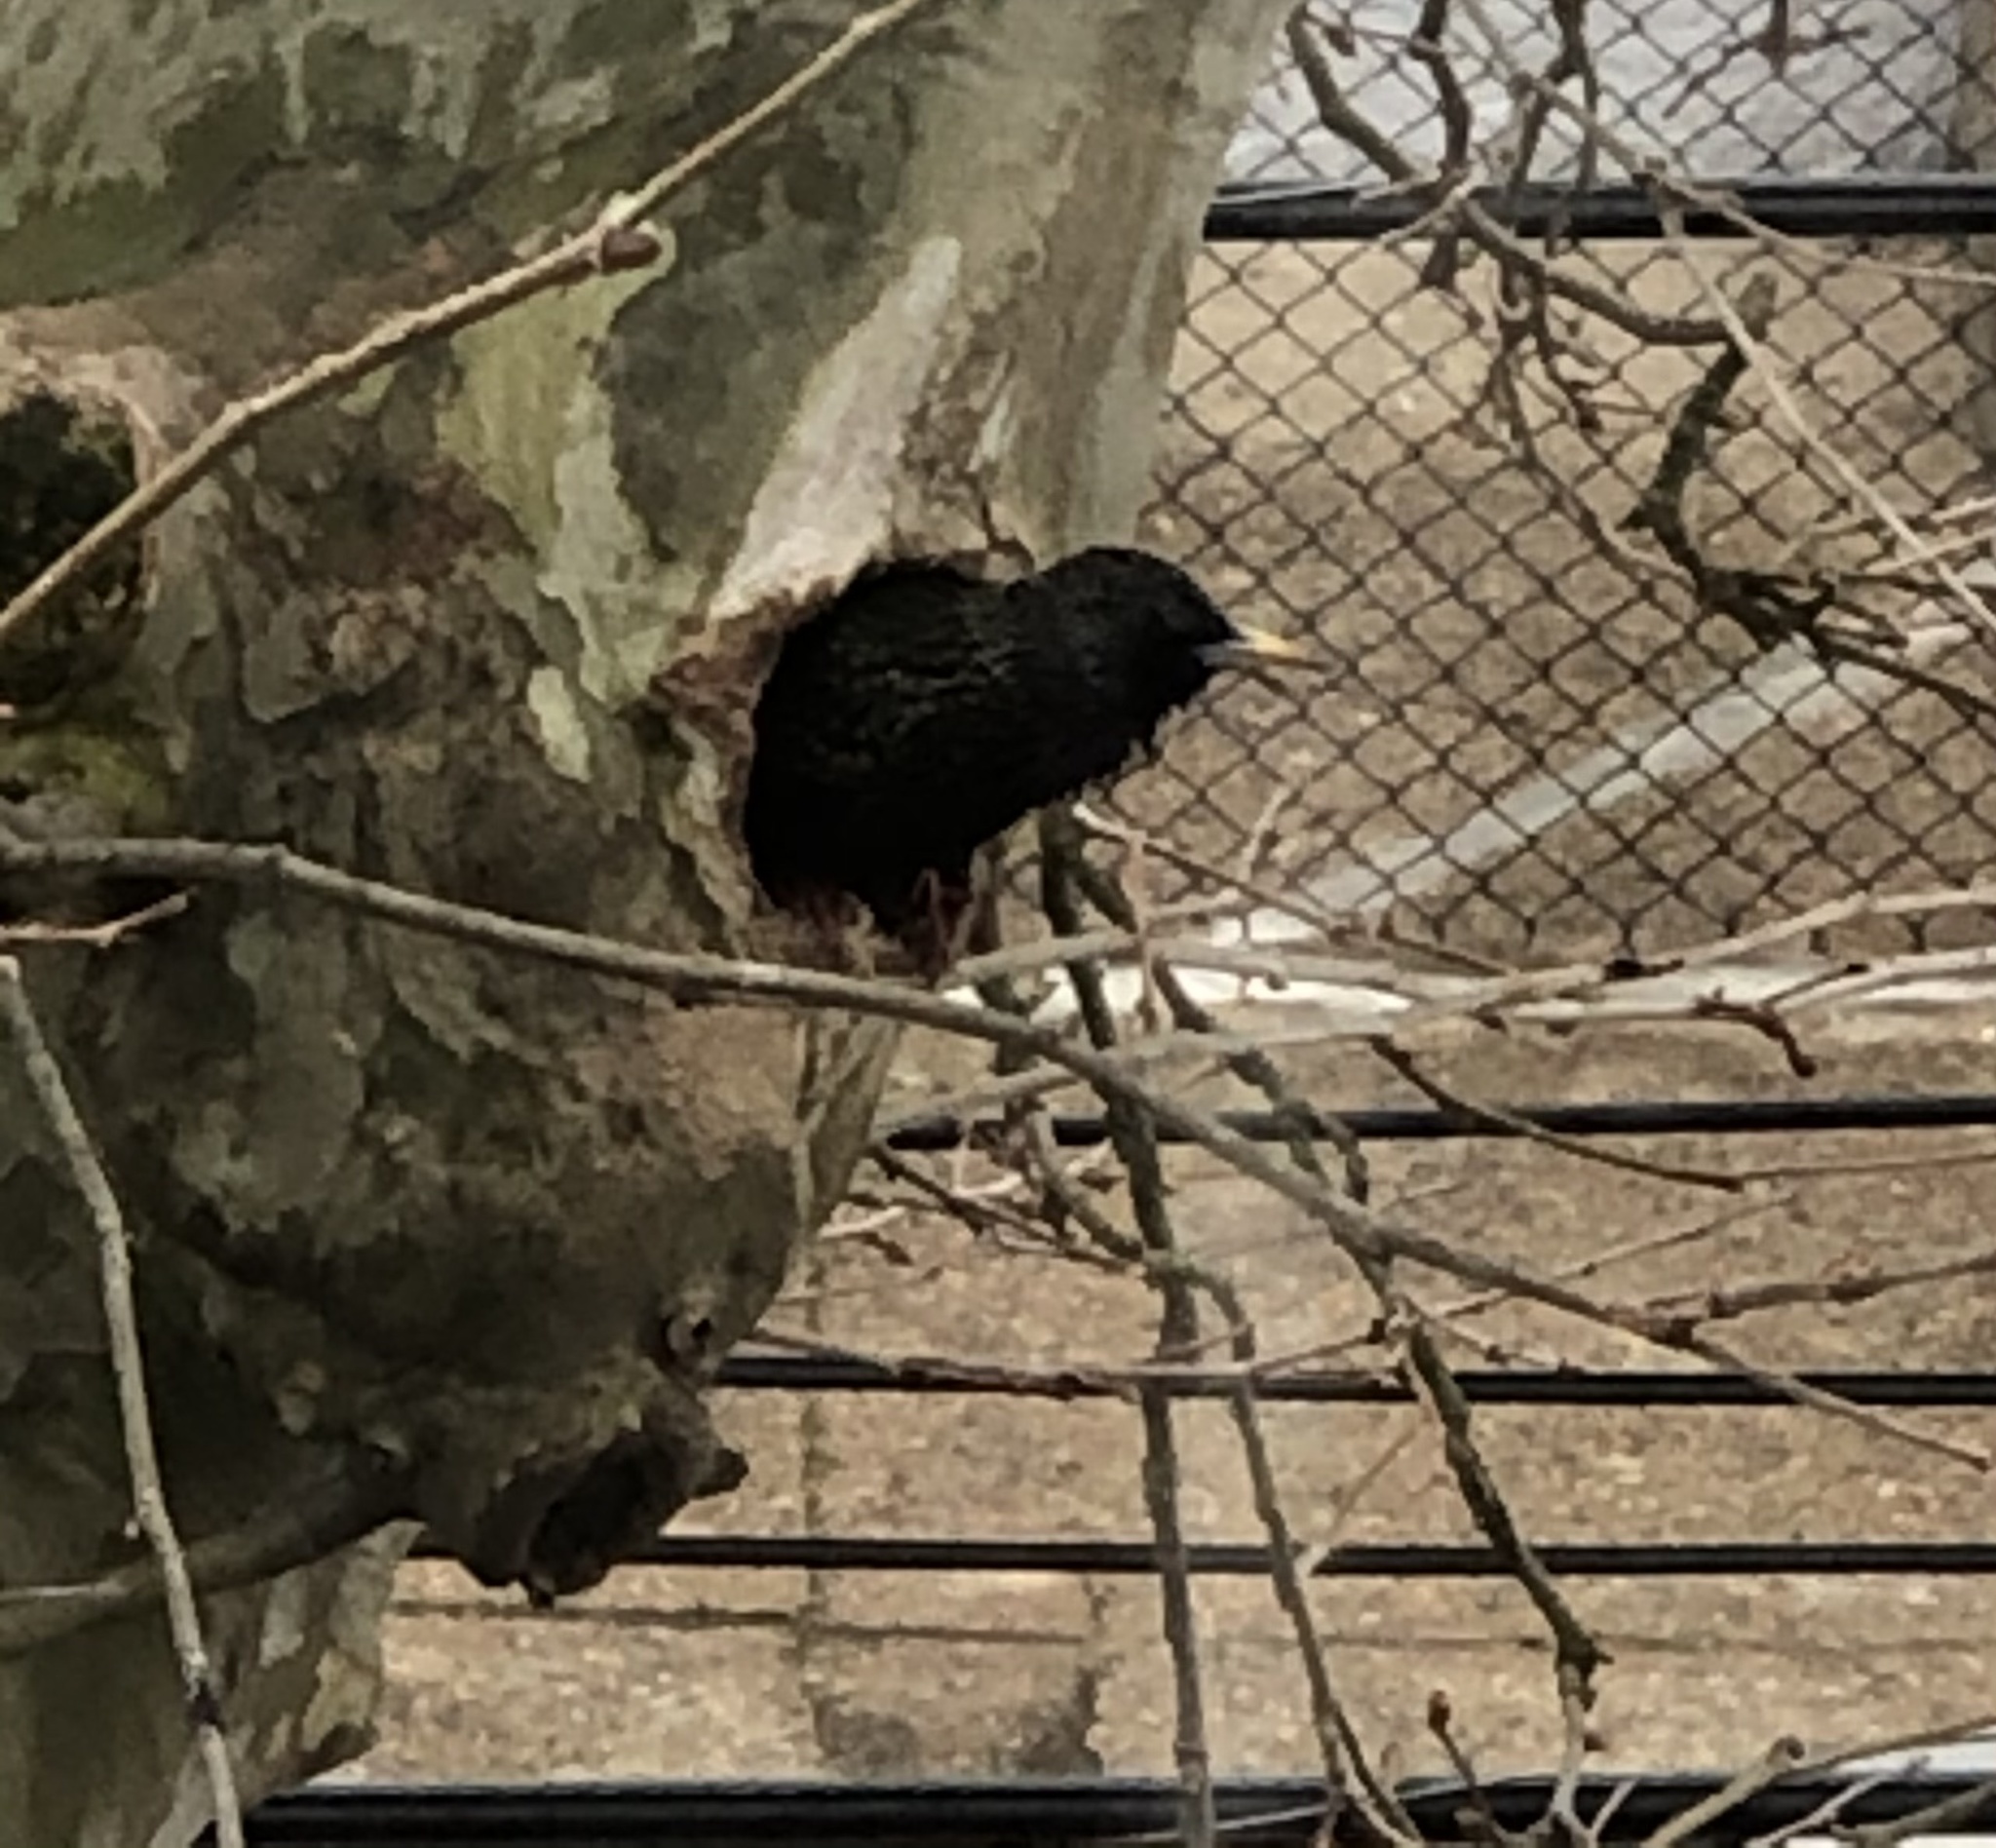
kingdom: Animalia
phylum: Chordata
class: Aves
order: Passeriformes
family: Sturnidae
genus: Sturnus
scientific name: Sturnus vulgaris
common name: Common starling
